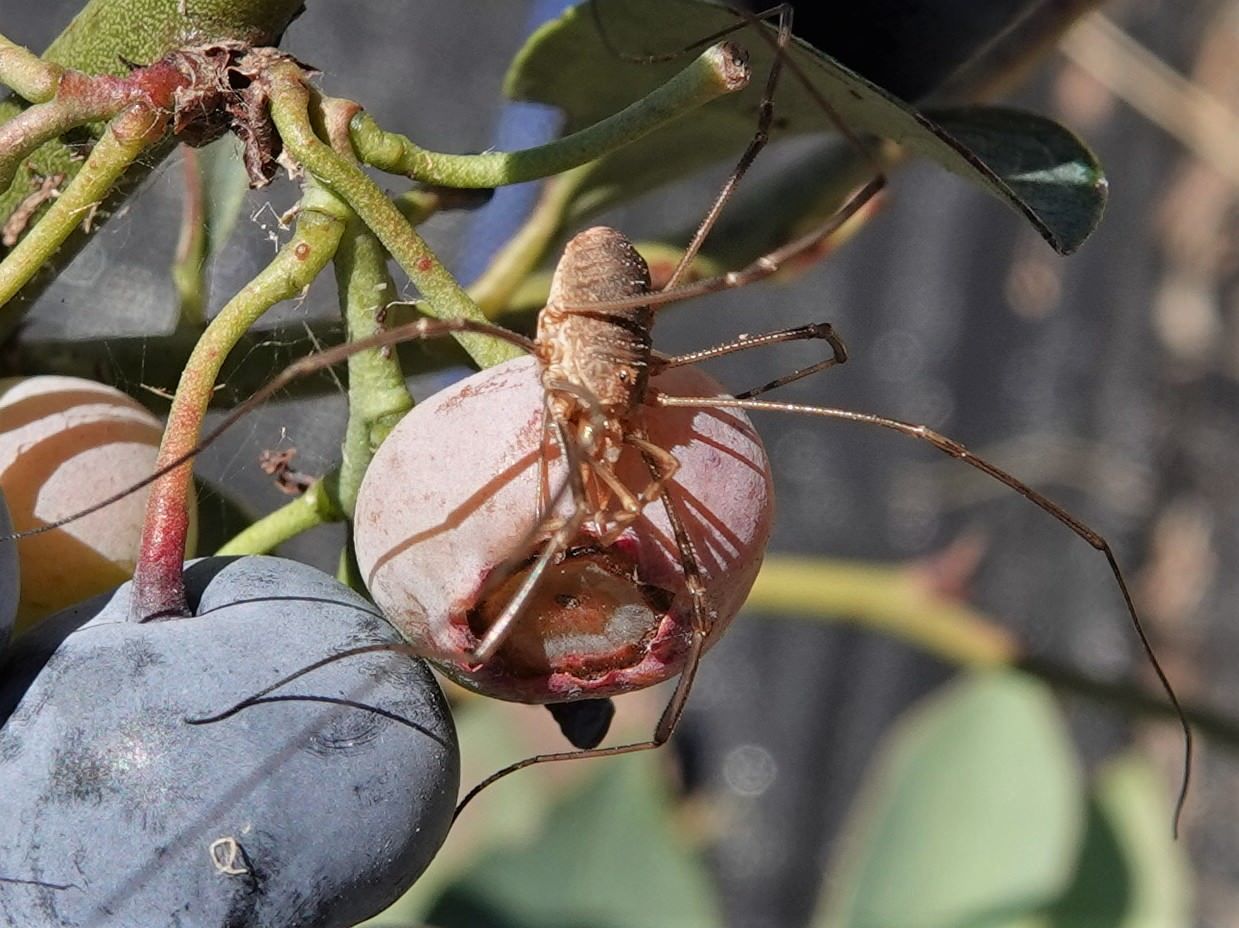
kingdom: Animalia
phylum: Arthropoda
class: Arachnida
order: Opiliones
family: Phalangiidae
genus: Phalangium
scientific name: Phalangium opilio
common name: Daddy longleg
